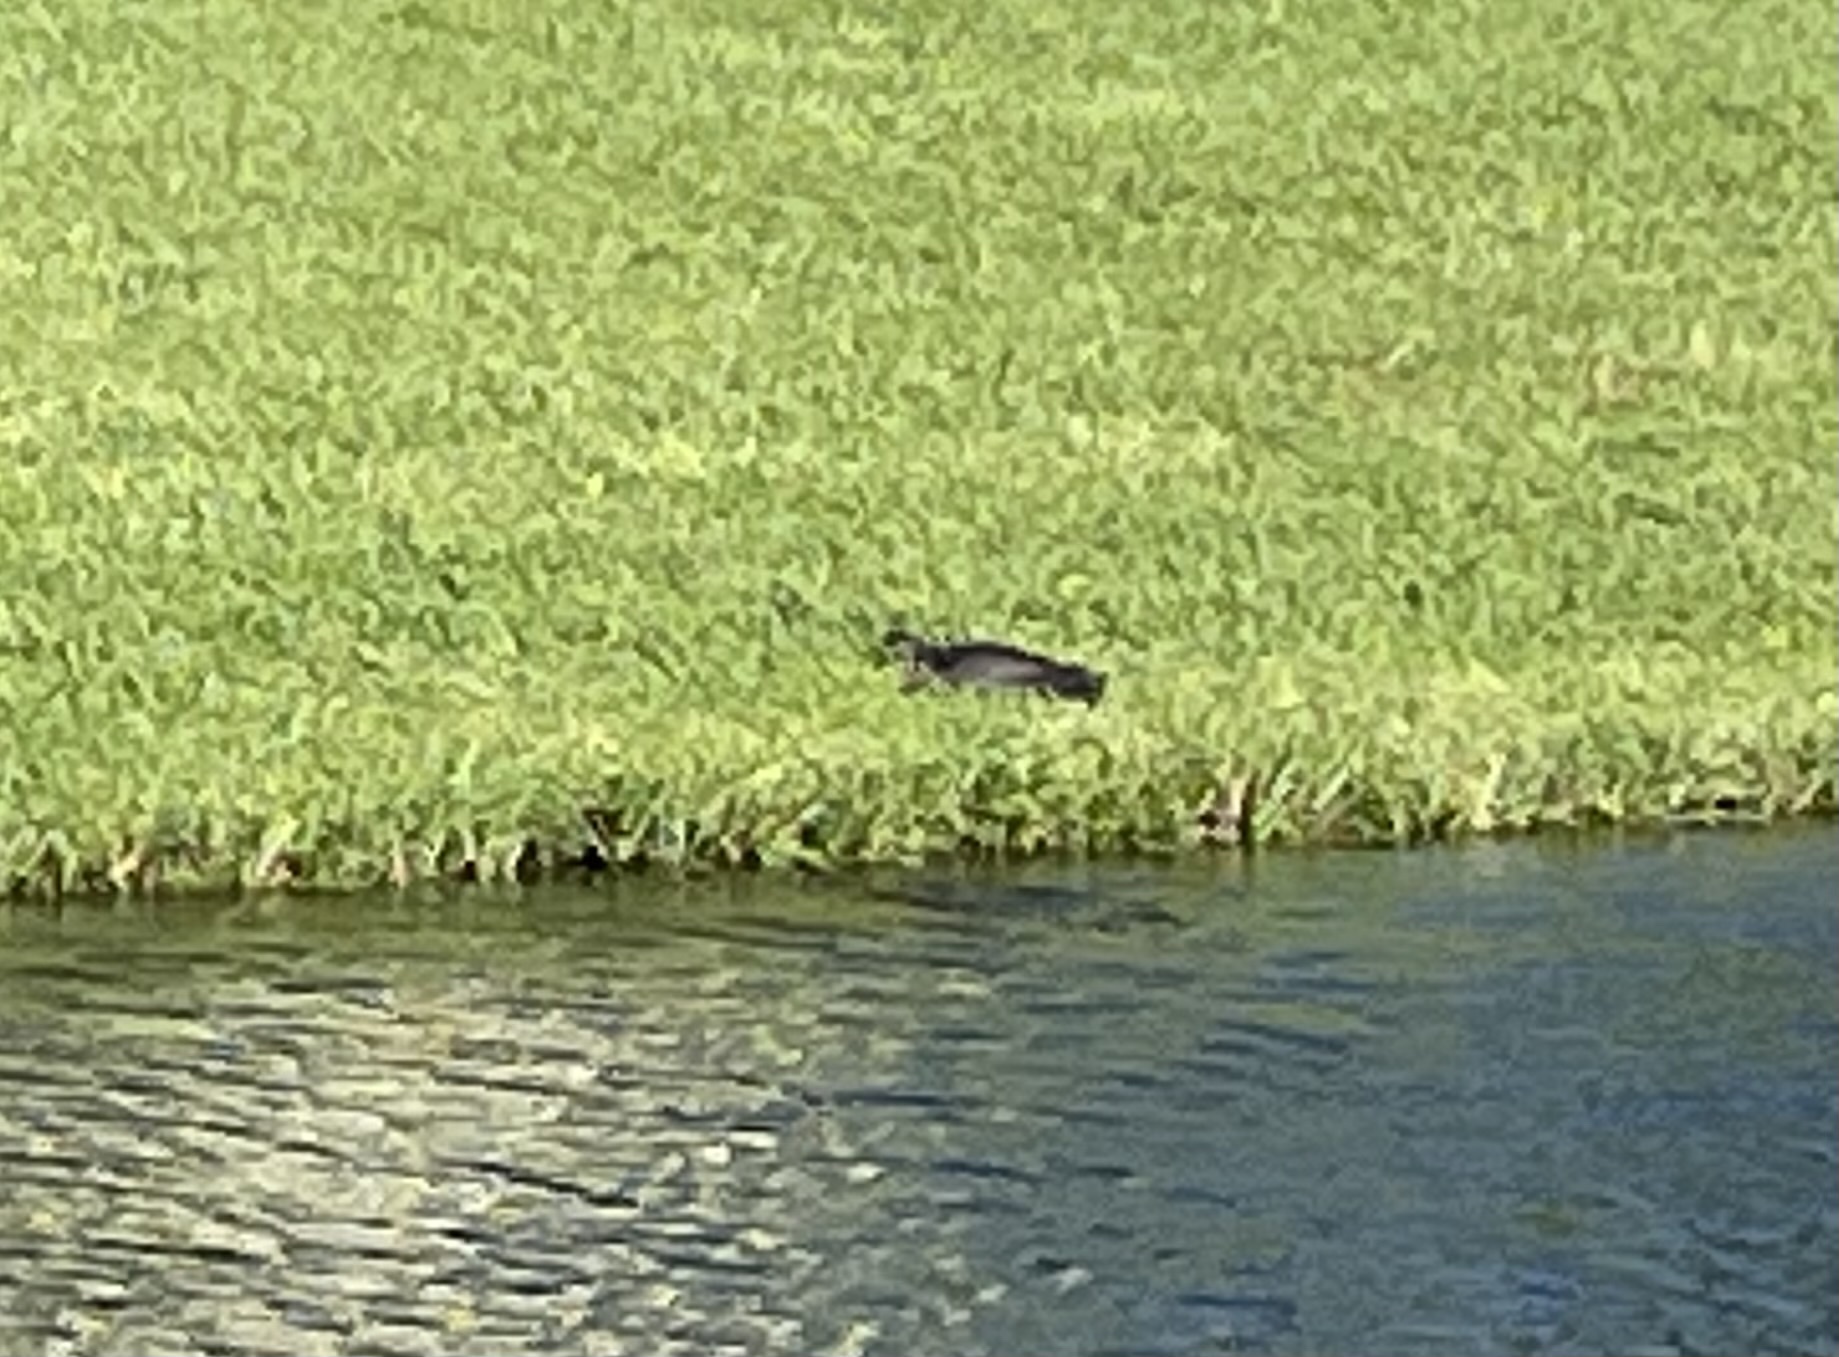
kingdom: Animalia
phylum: Chordata
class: Testudines
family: Trionychidae
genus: Apalone
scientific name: Apalone ferox
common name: Florida softshell turtle
